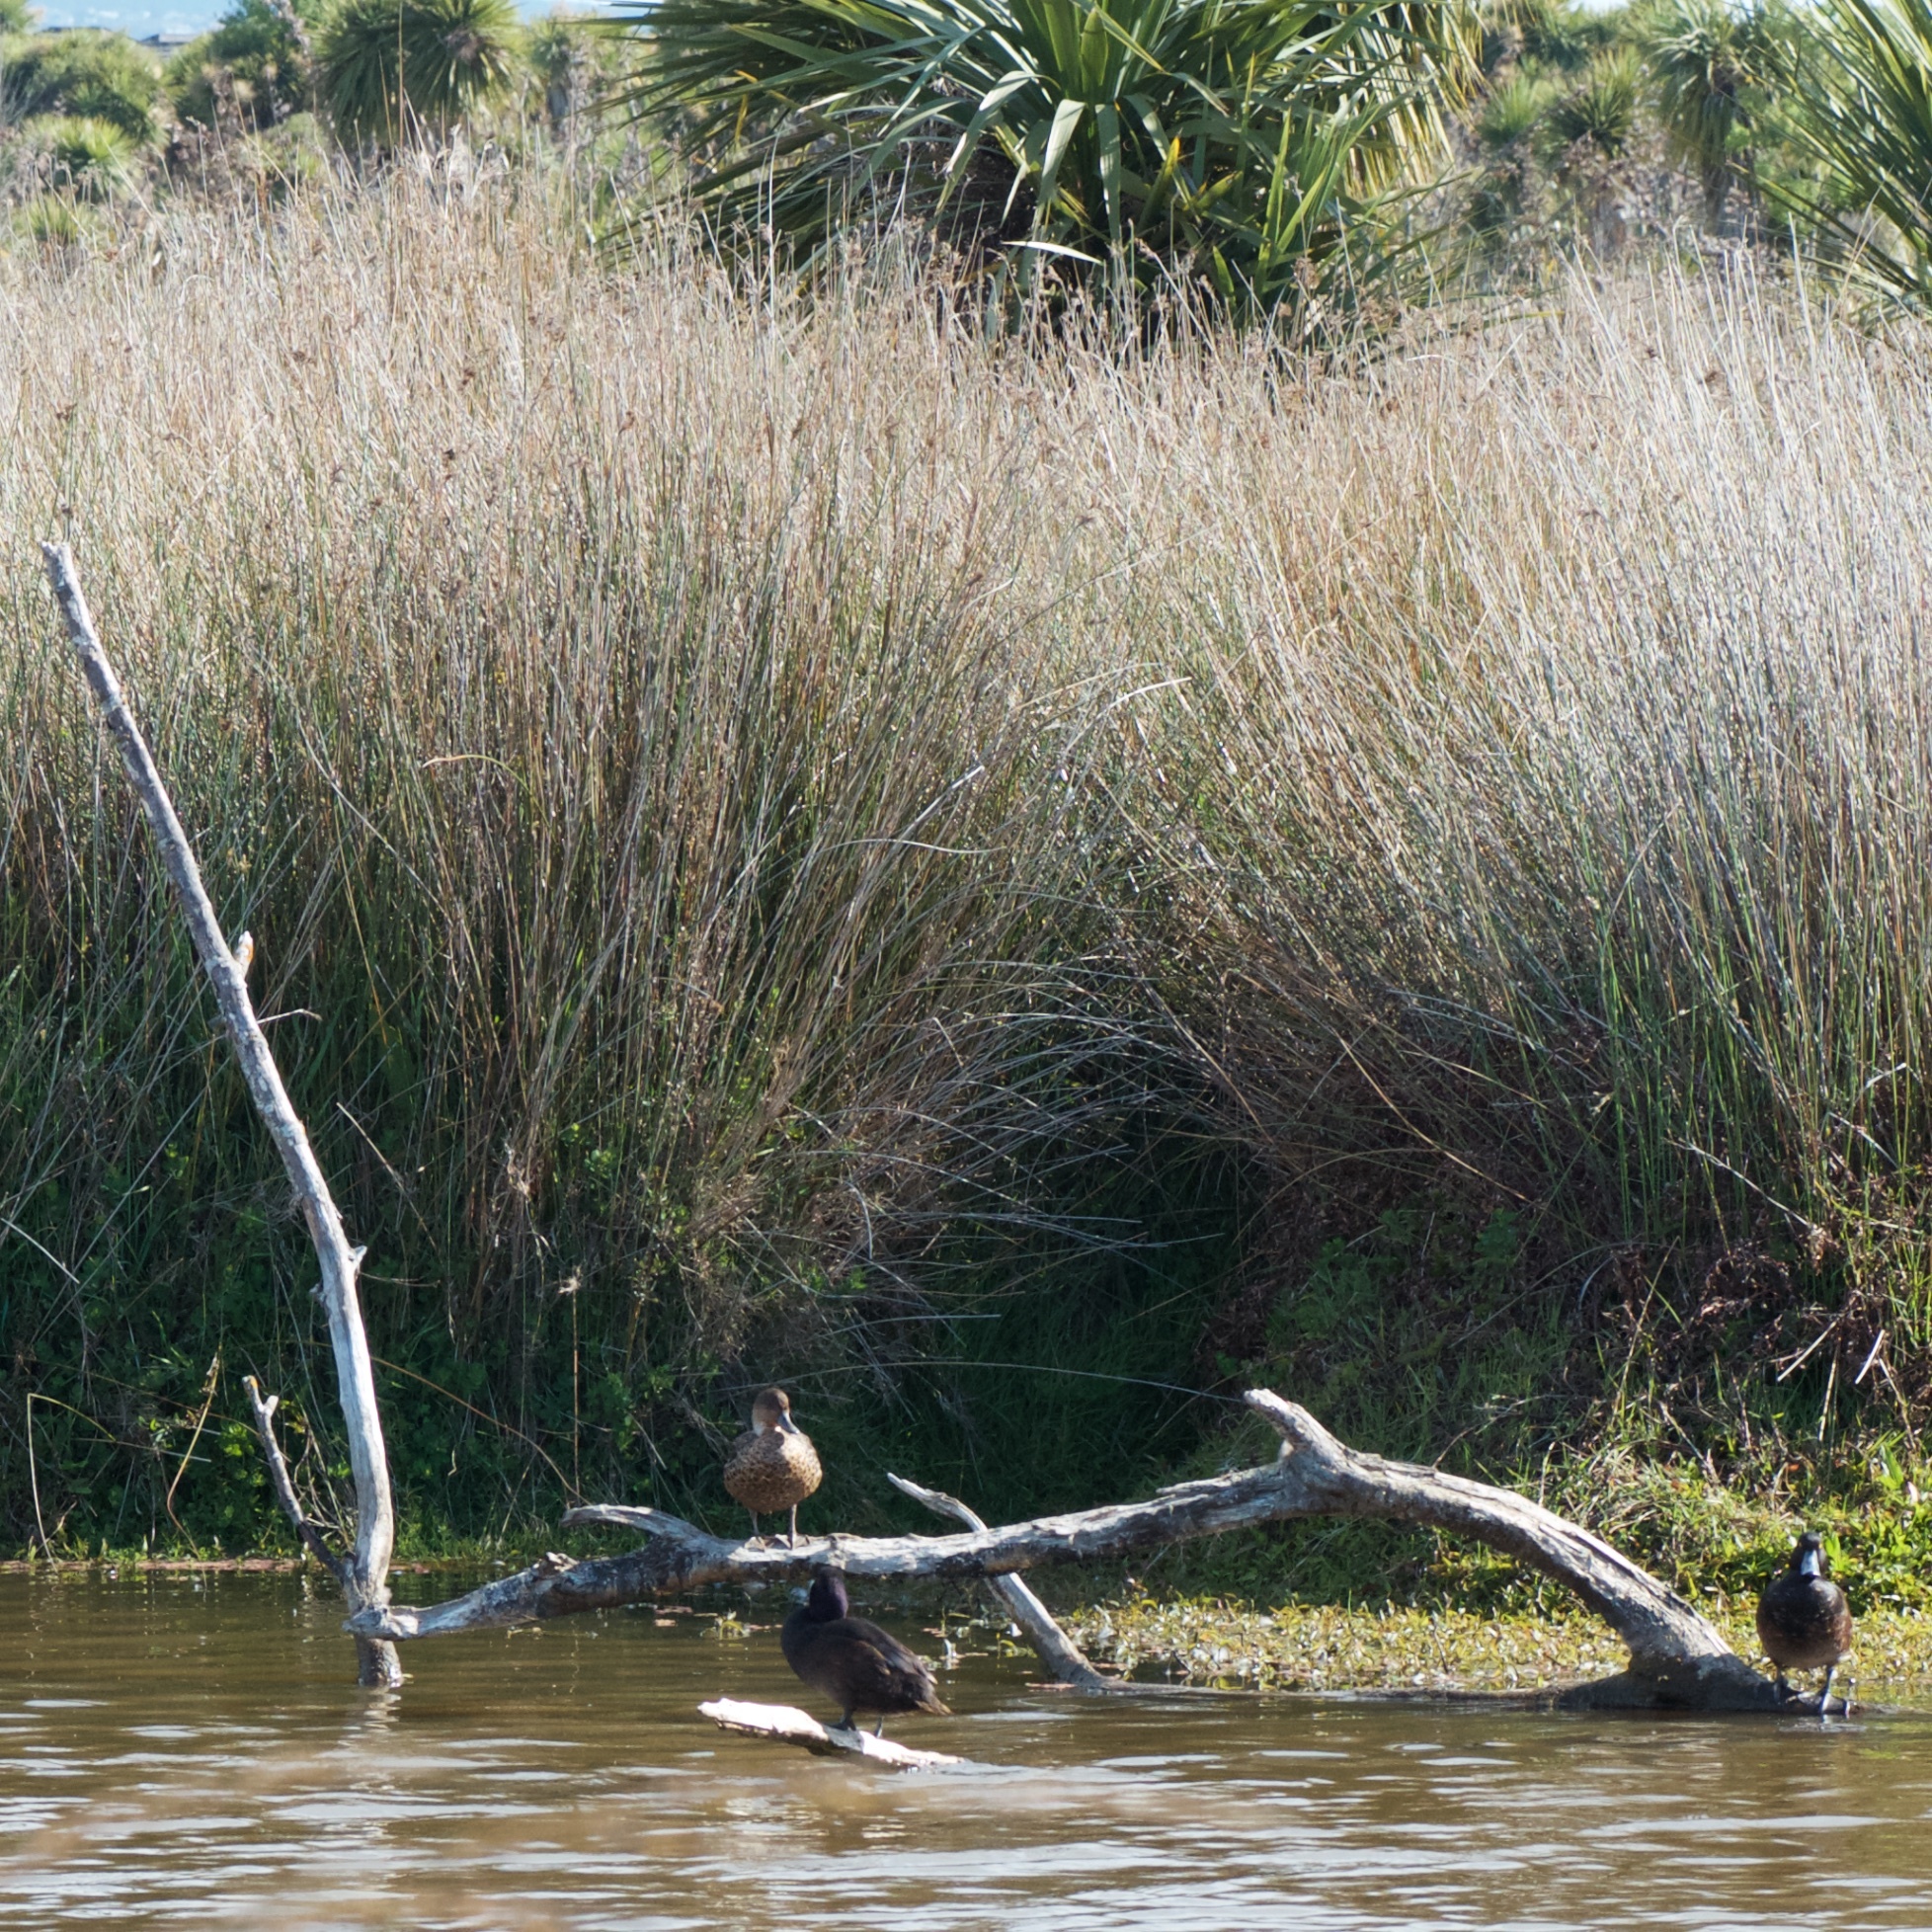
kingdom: Animalia
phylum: Chordata
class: Aves
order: Anseriformes
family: Anatidae
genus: Anas
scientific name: Anas gracilis
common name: Grey teal
